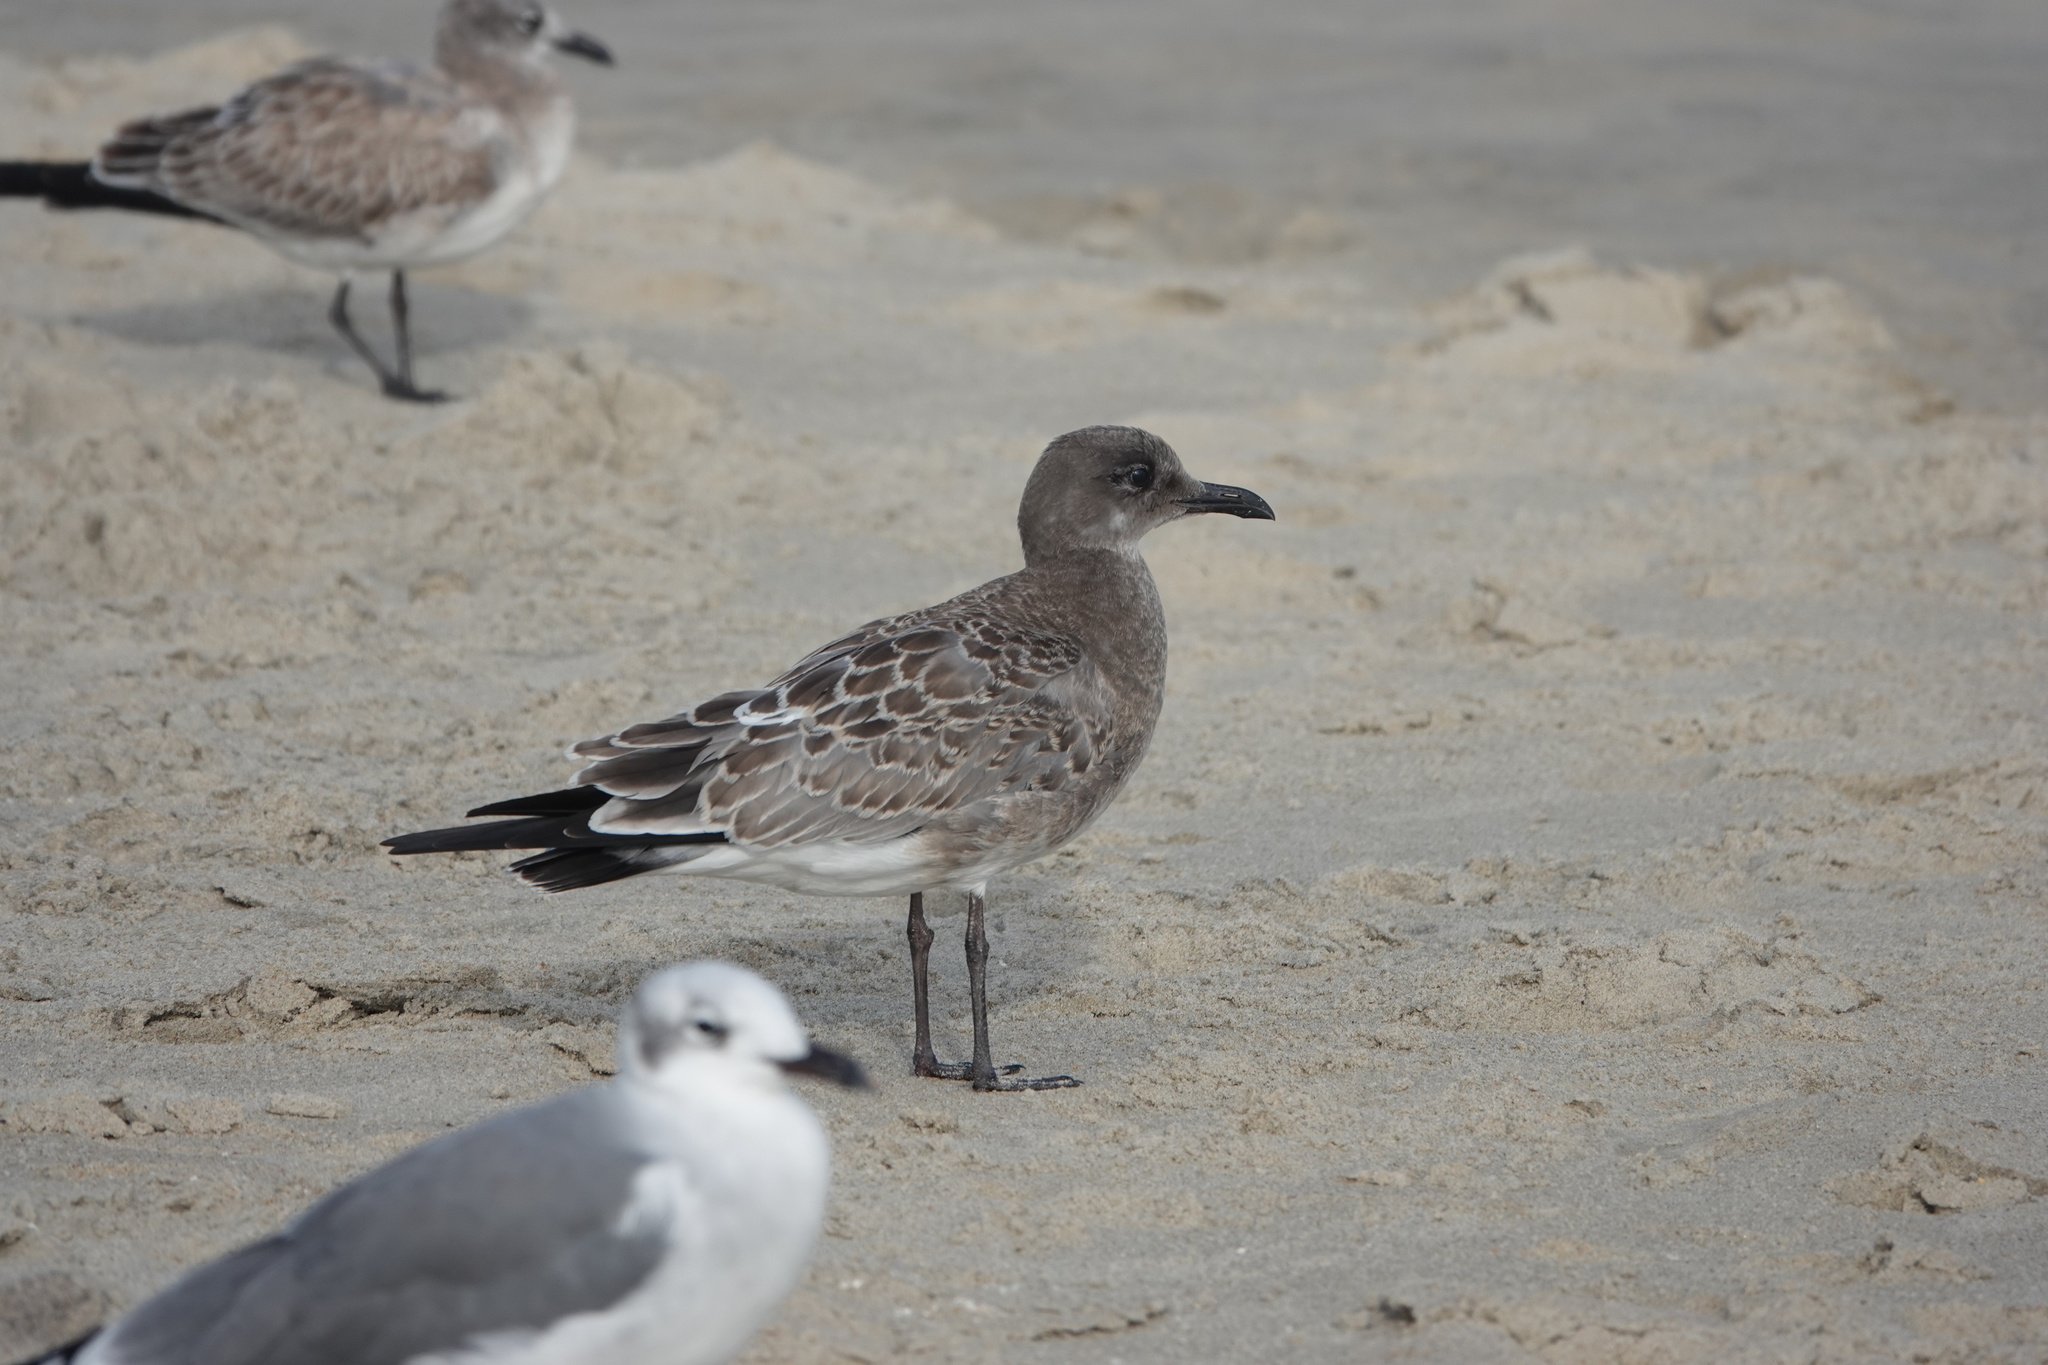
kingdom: Animalia
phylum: Chordata
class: Aves
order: Charadriiformes
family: Laridae
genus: Leucophaeus
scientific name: Leucophaeus atricilla
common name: Laughing gull
